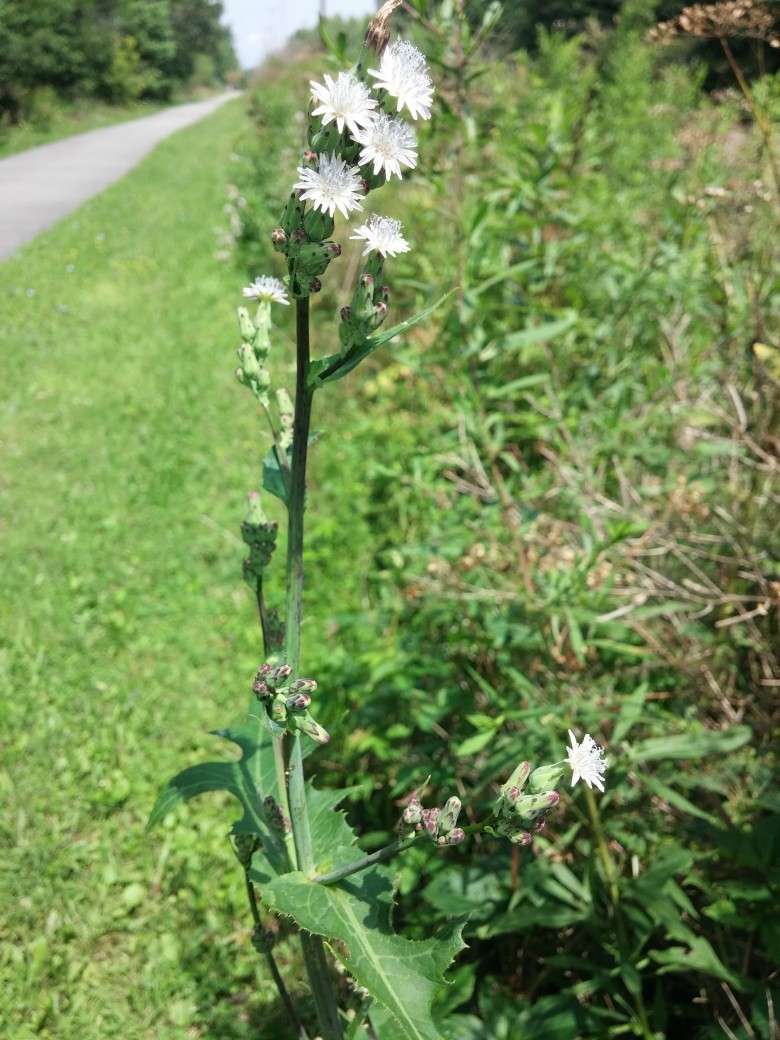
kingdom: Plantae
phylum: Tracheophyta
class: Magnoliopsida
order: Asterales
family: Asteraceae
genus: Lactuca
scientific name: Lactuca biennis
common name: Blue wood lettuce
